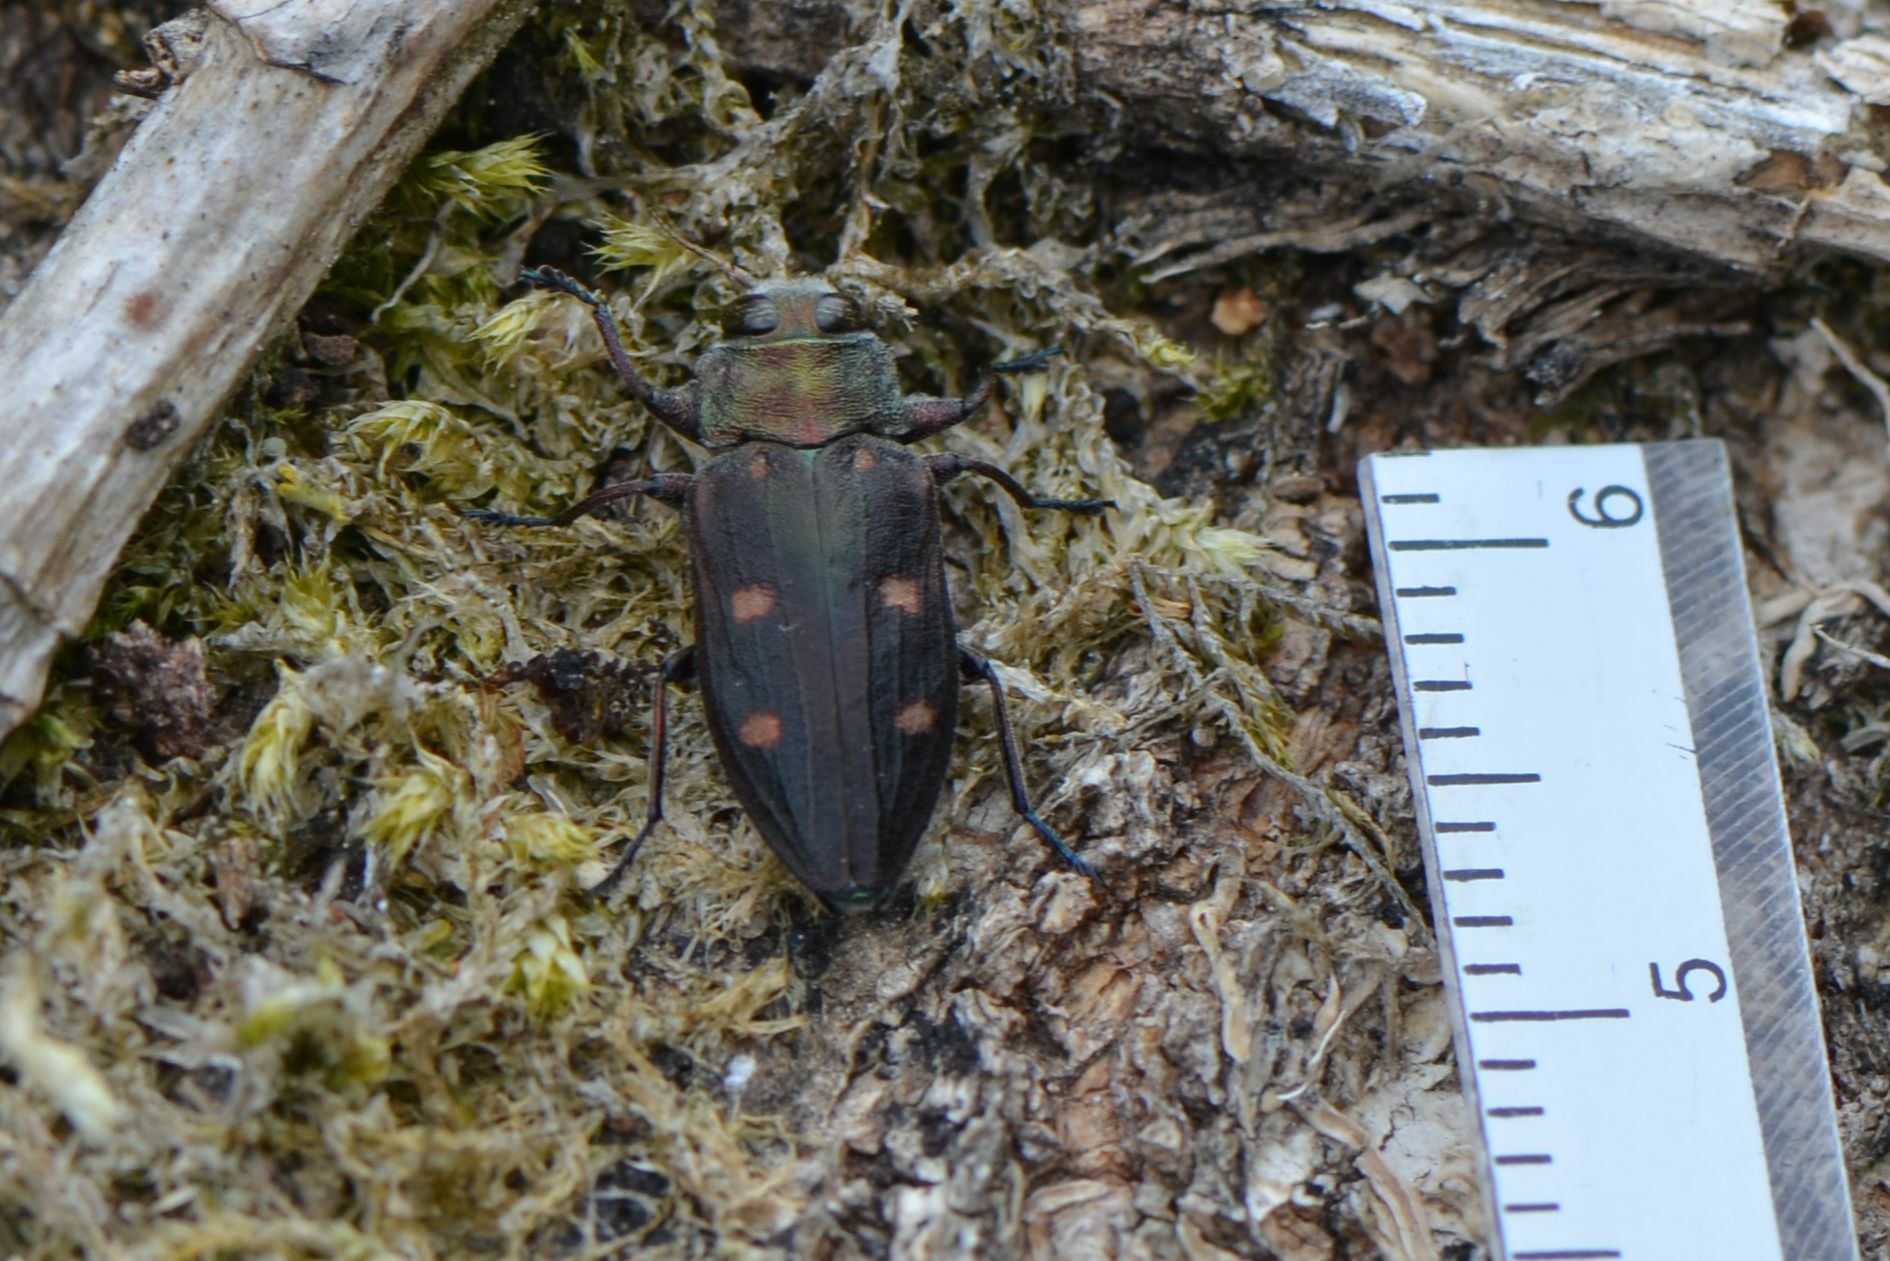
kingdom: Animalia
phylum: Arthropoda
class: Insecta
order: Coleoptera
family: Buprestidae
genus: Chrysobothris
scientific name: Chrysobothris affinis
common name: Beetle
